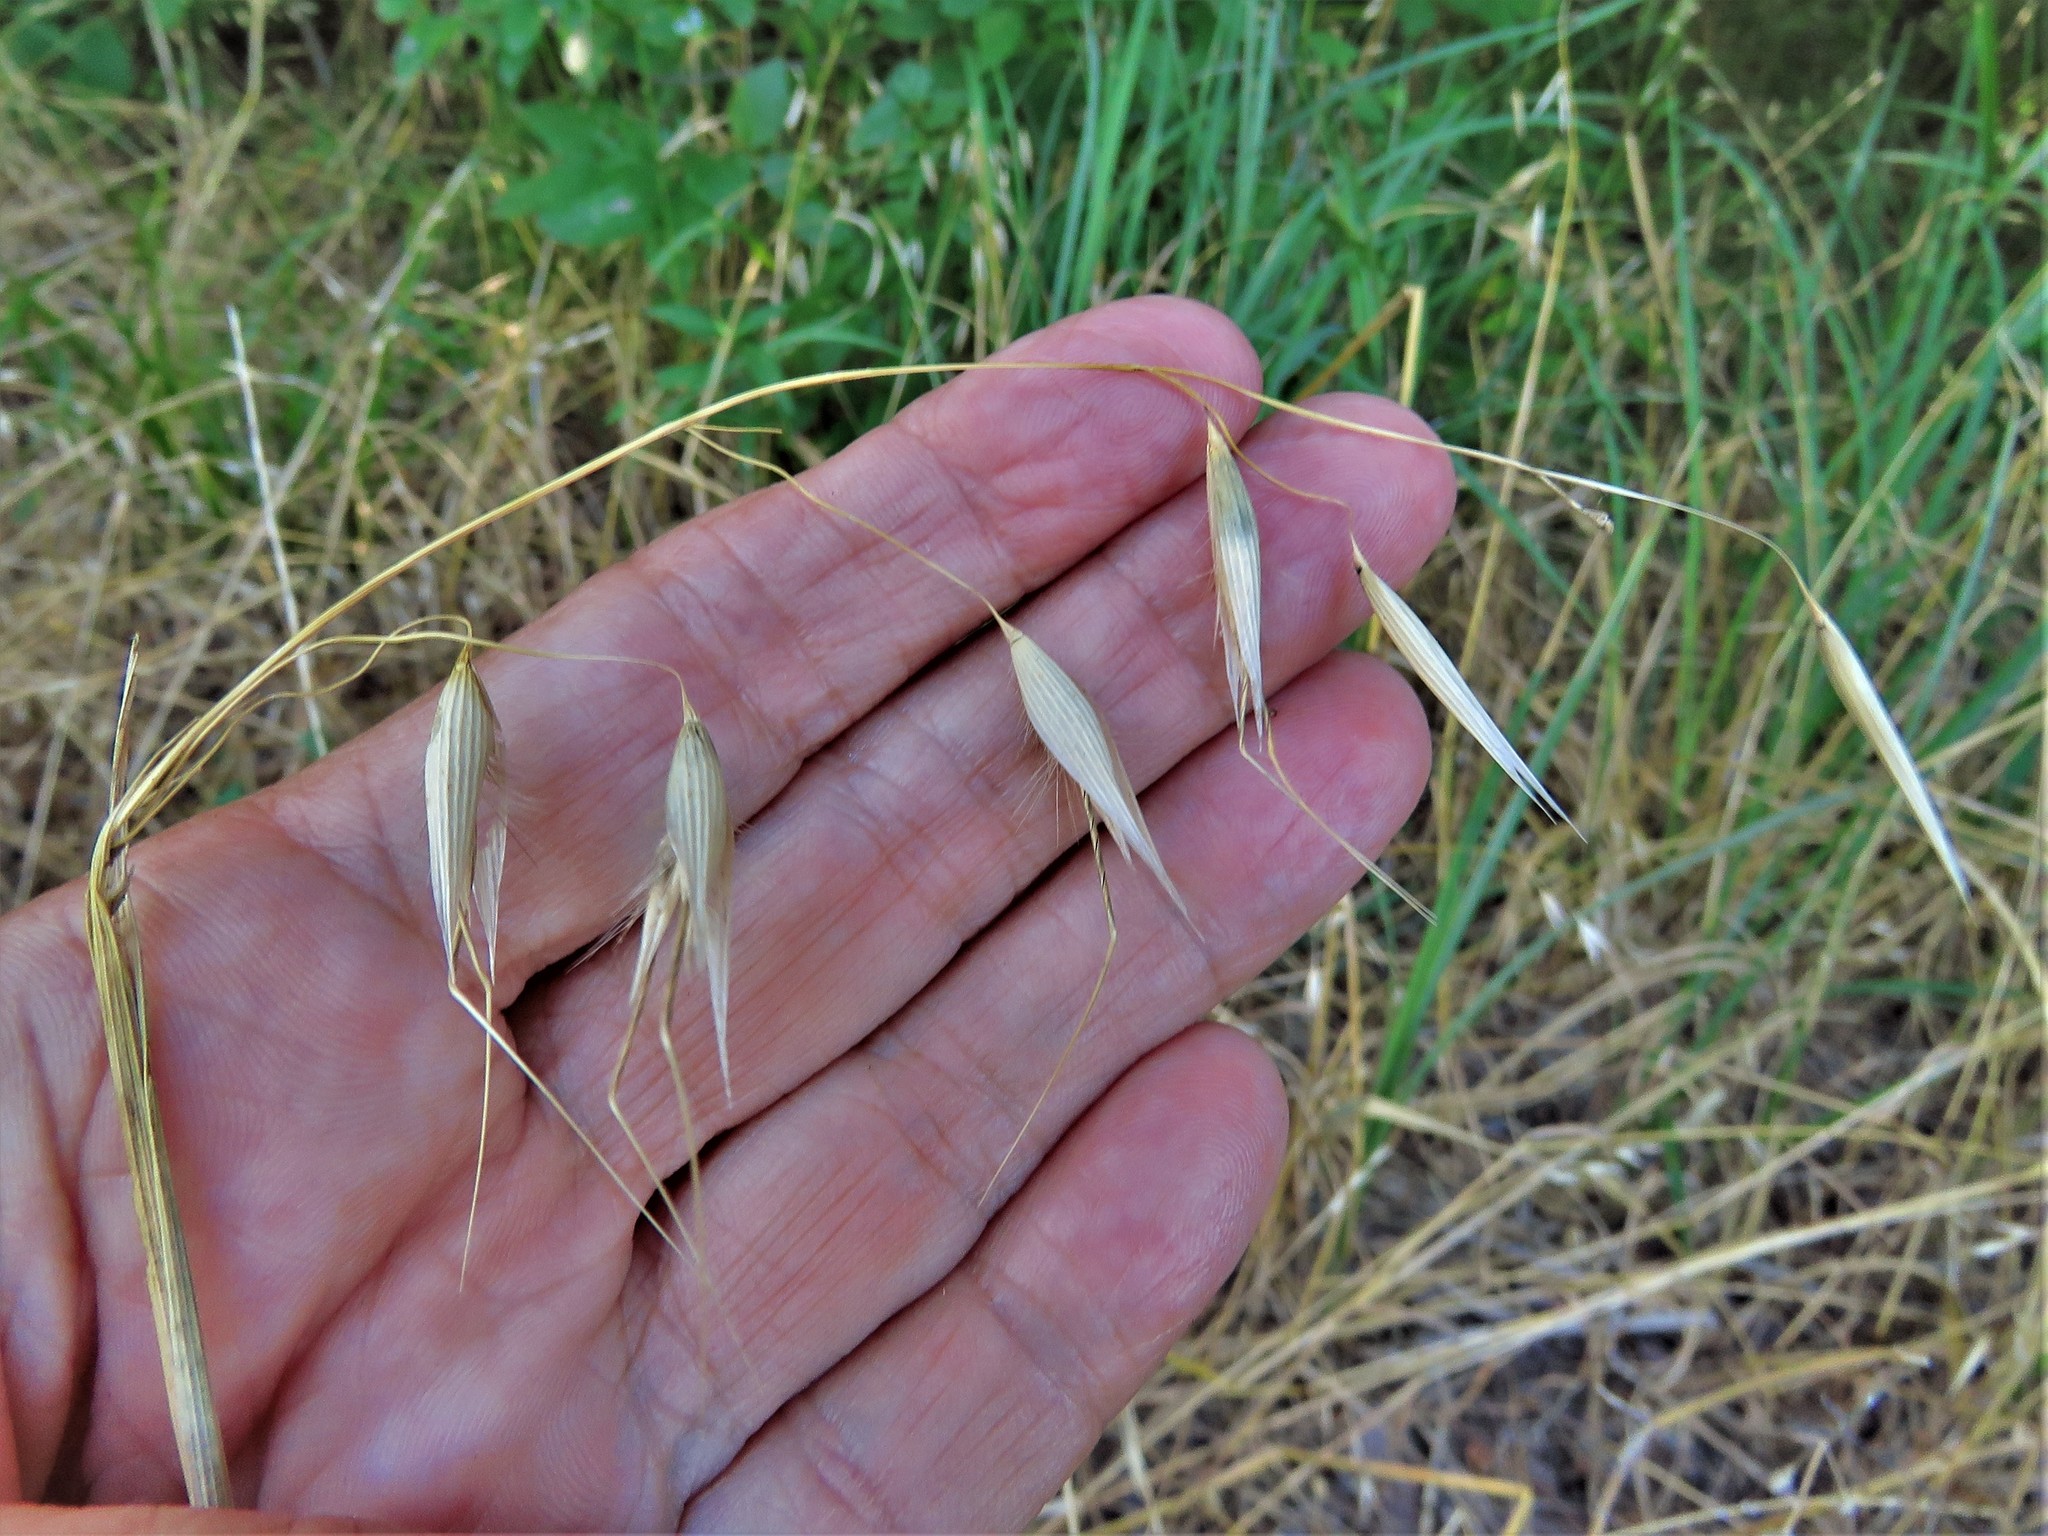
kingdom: Plantae
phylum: Tracheophyta
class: Liliopsida
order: Poales
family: Poaceae
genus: Avena
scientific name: Avena fatua
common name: Wild oat
